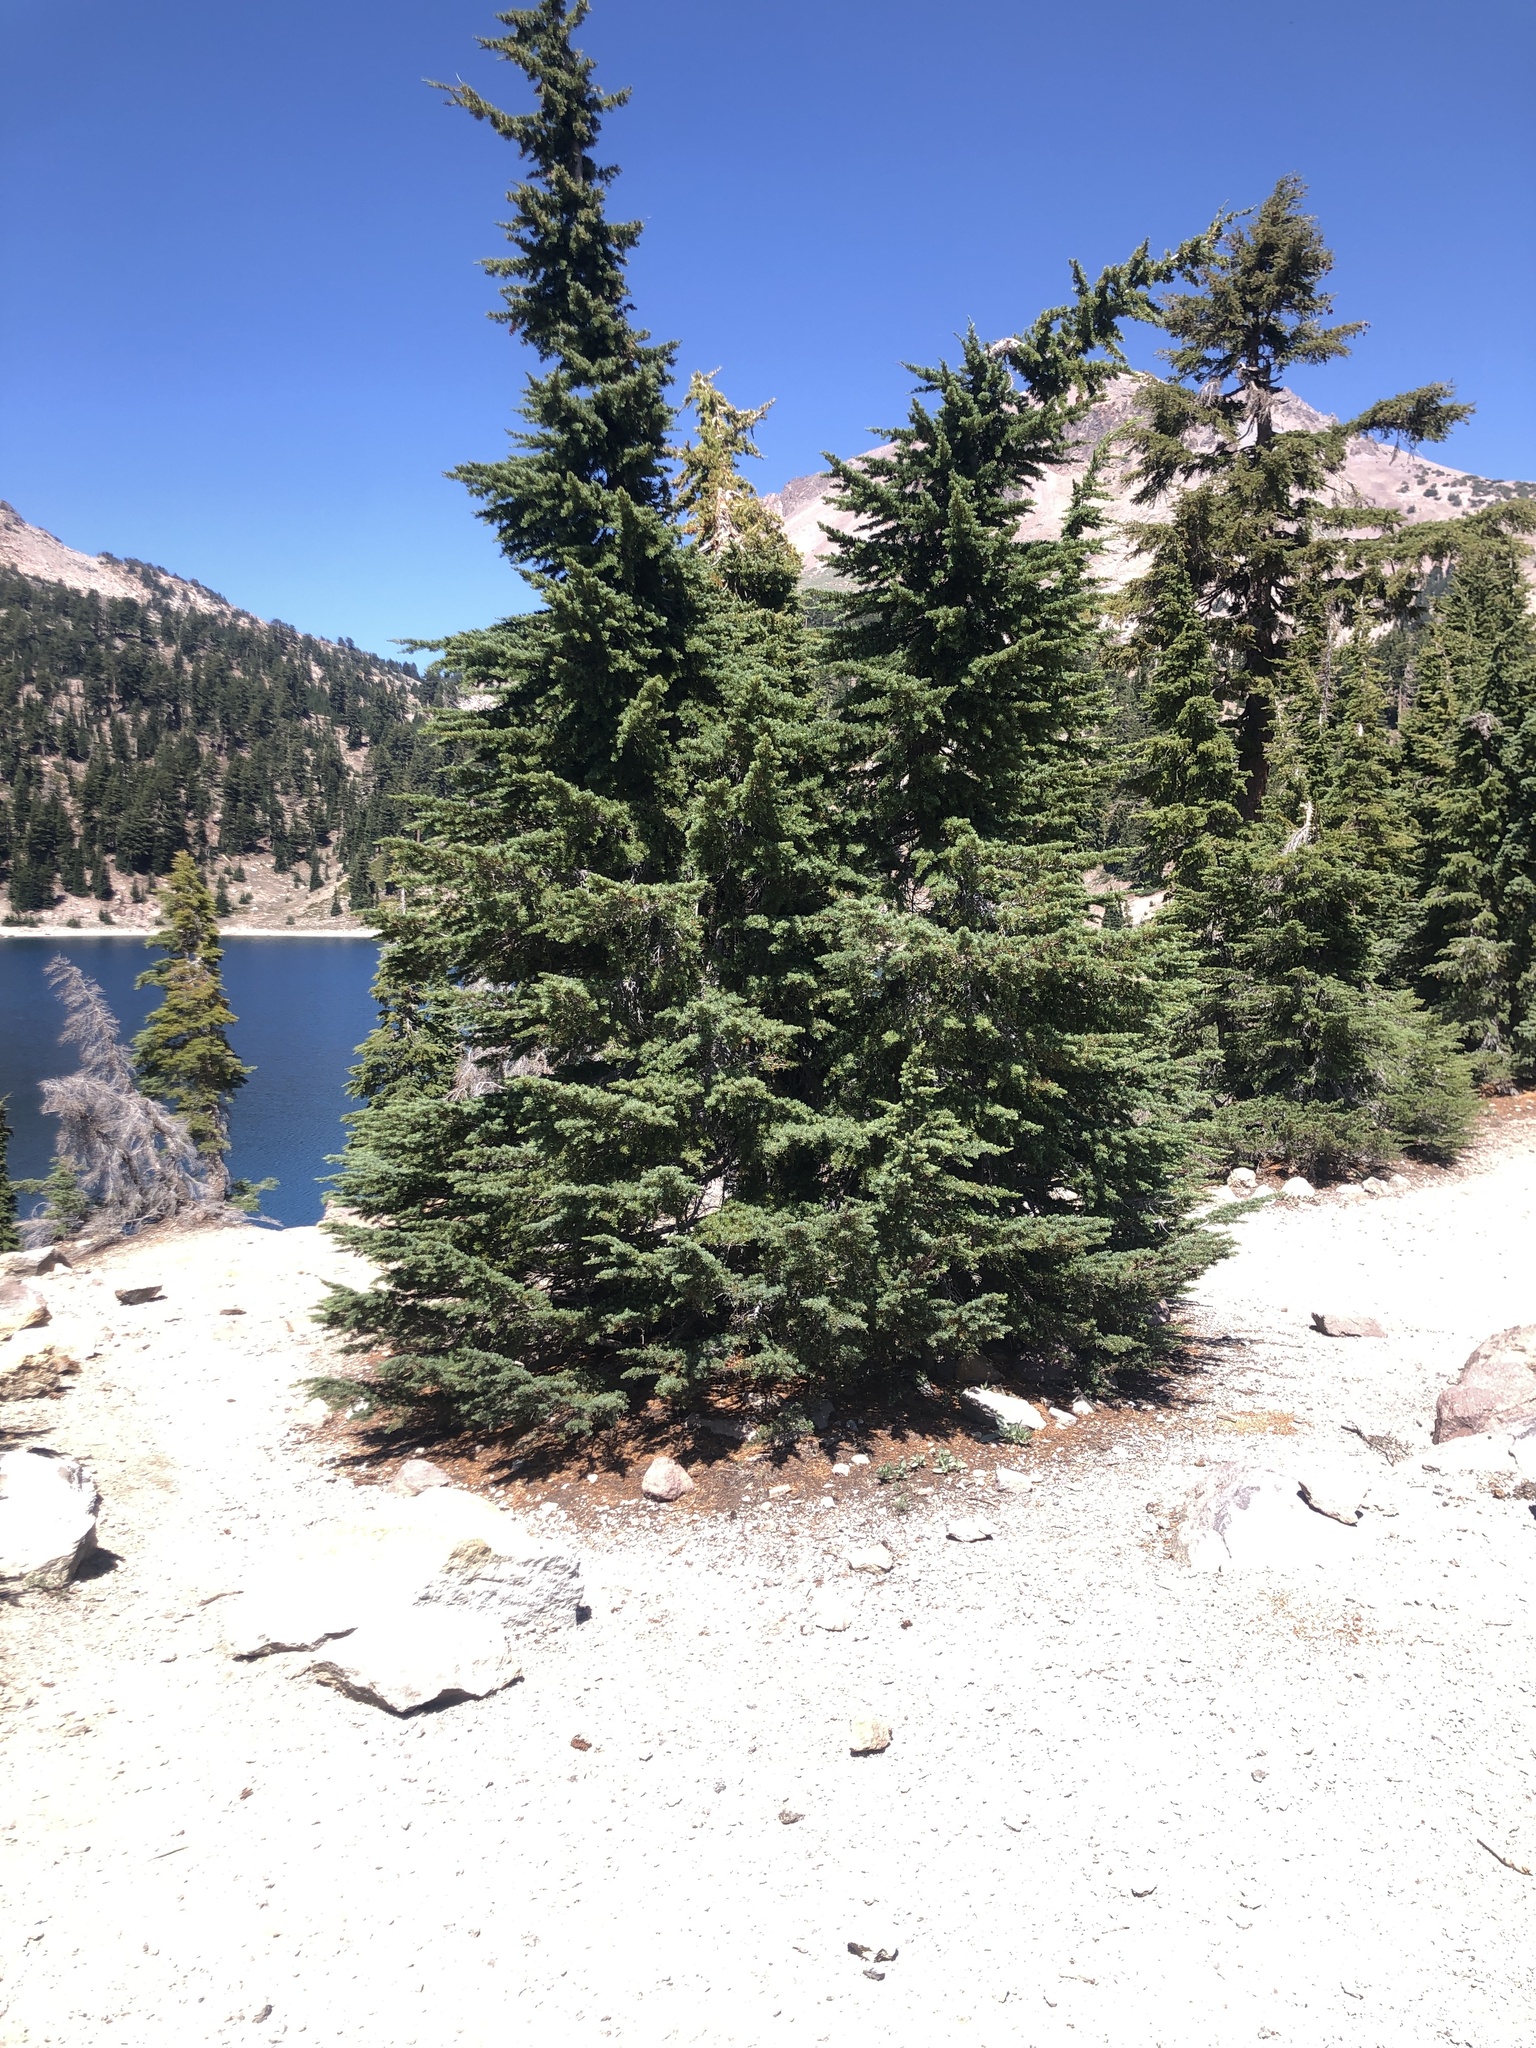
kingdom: Plantae
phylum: Tracheophyta
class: Pinopsida
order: Pinales
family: Pinaceae
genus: Tsuga
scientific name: Tsuga mertensiana
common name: Mountain hemlock
